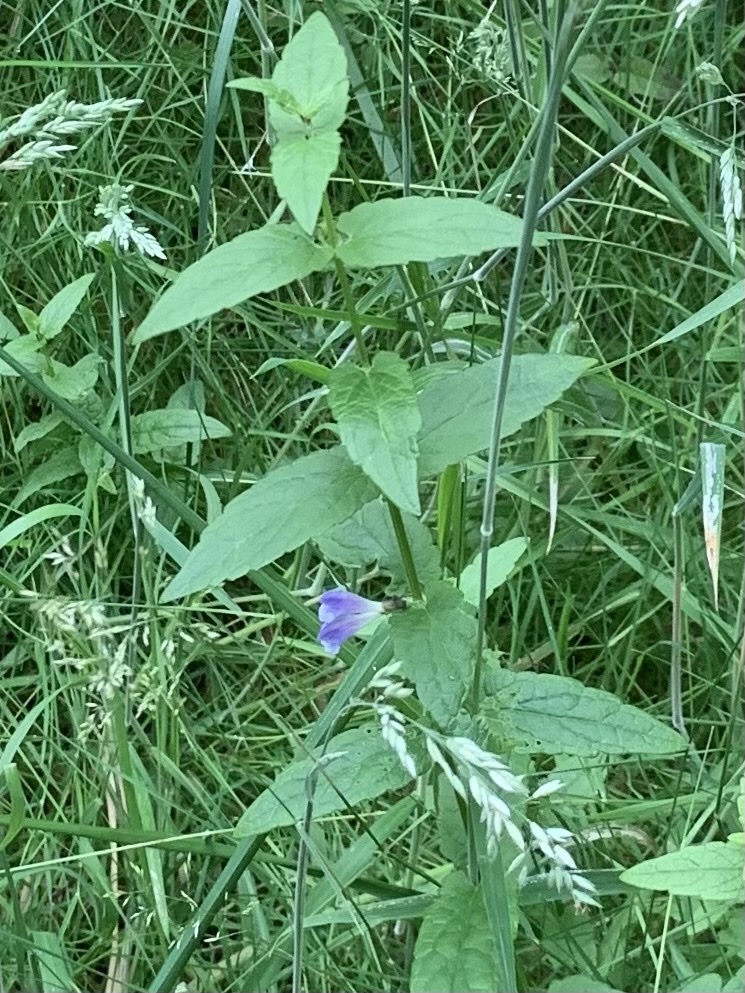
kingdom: Plantae
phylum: Tracheophyta
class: Magnoliopsida
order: Lamiales
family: Lamiaceae
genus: Scutellaria
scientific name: Scutellaria galericulata
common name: Skullcap
